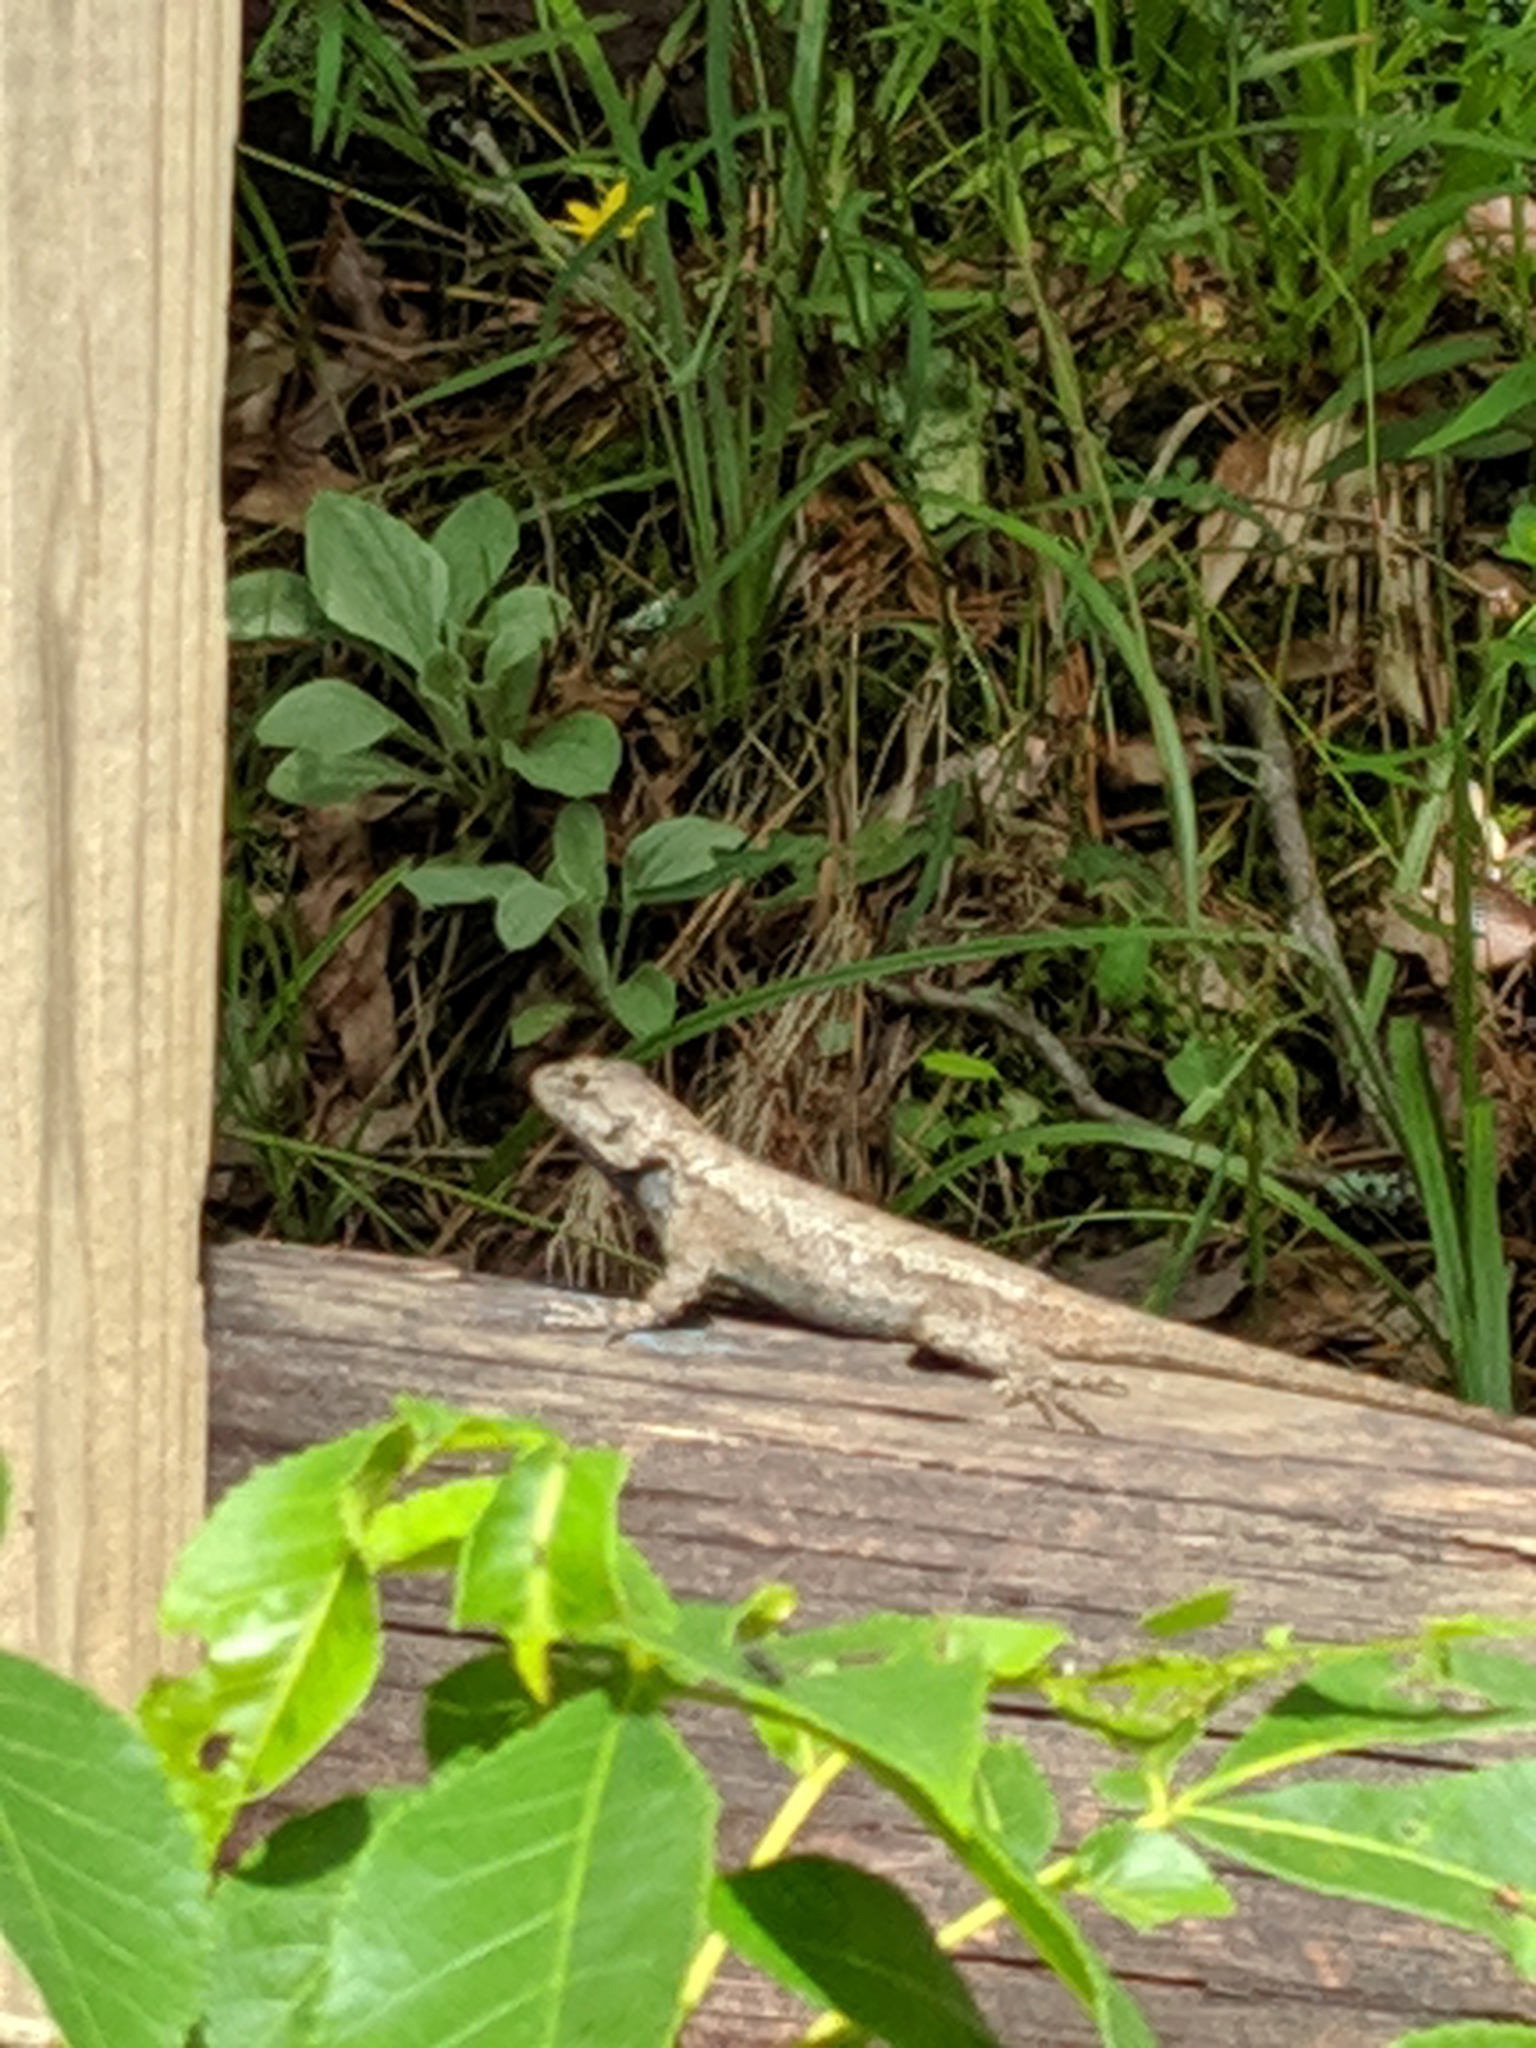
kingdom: Animalia
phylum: Chordata
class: Squamata
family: Phrynosomatidae
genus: Sceloporus
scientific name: Sceloporus undulatus
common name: Eastern fence lizard
